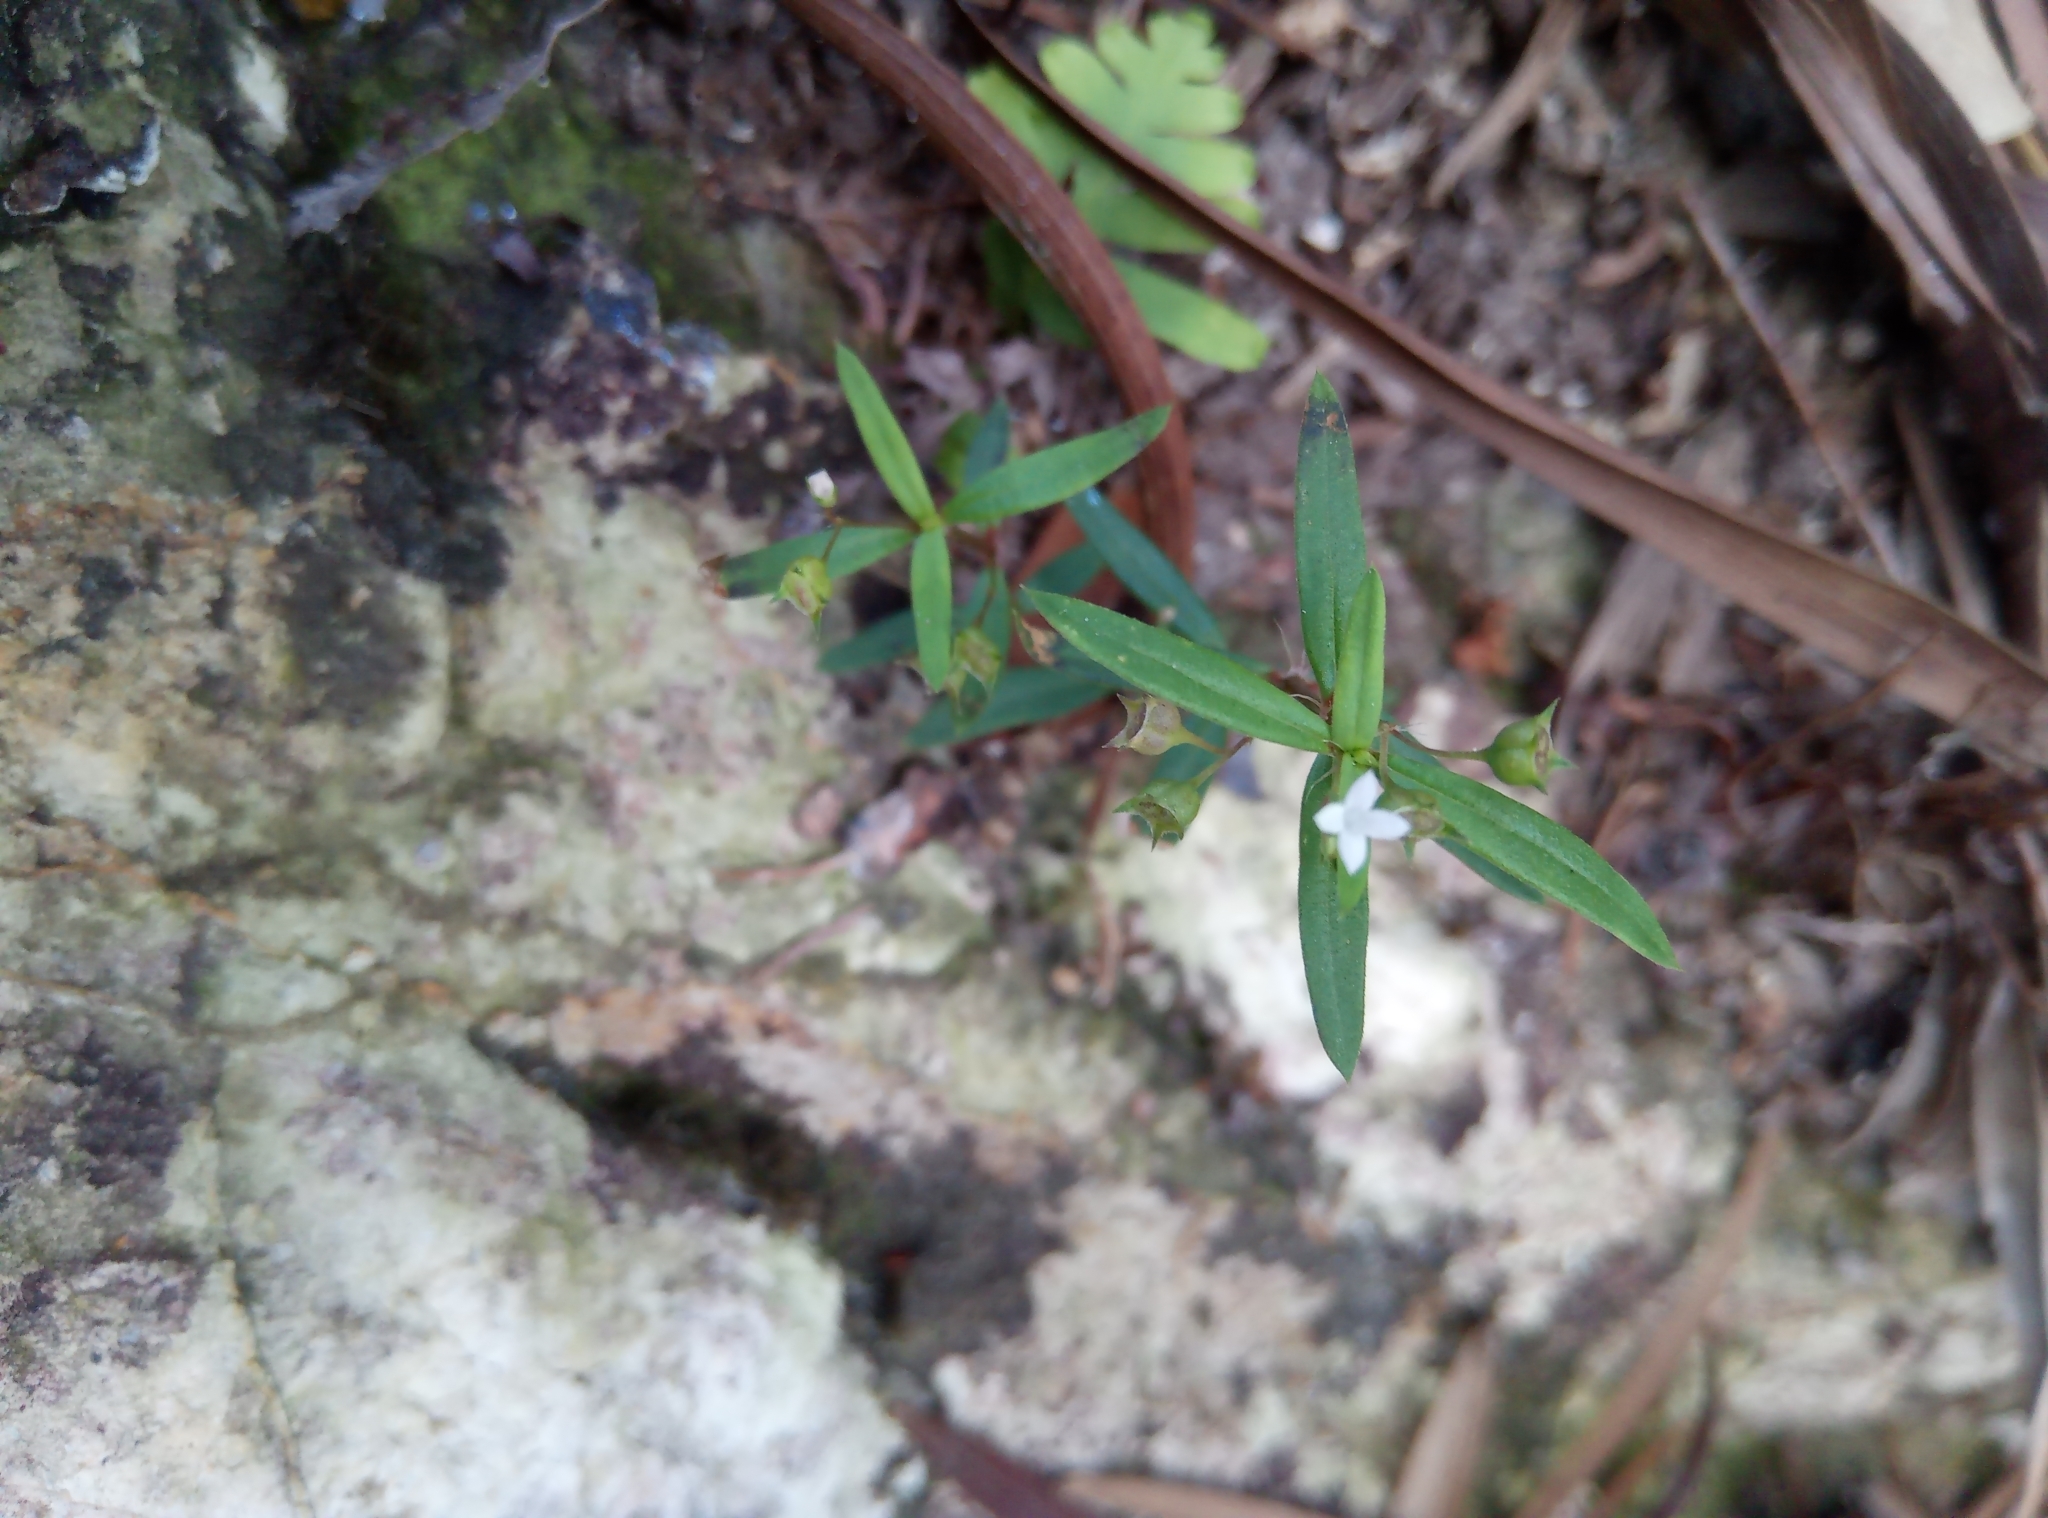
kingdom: Plantae
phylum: Tracheophyta
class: Magnoliopsida
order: Gentianales
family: Rubiaceae
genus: Oldenlandia
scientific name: Oldenlandia corymbosa
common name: Flat-top mille graines
